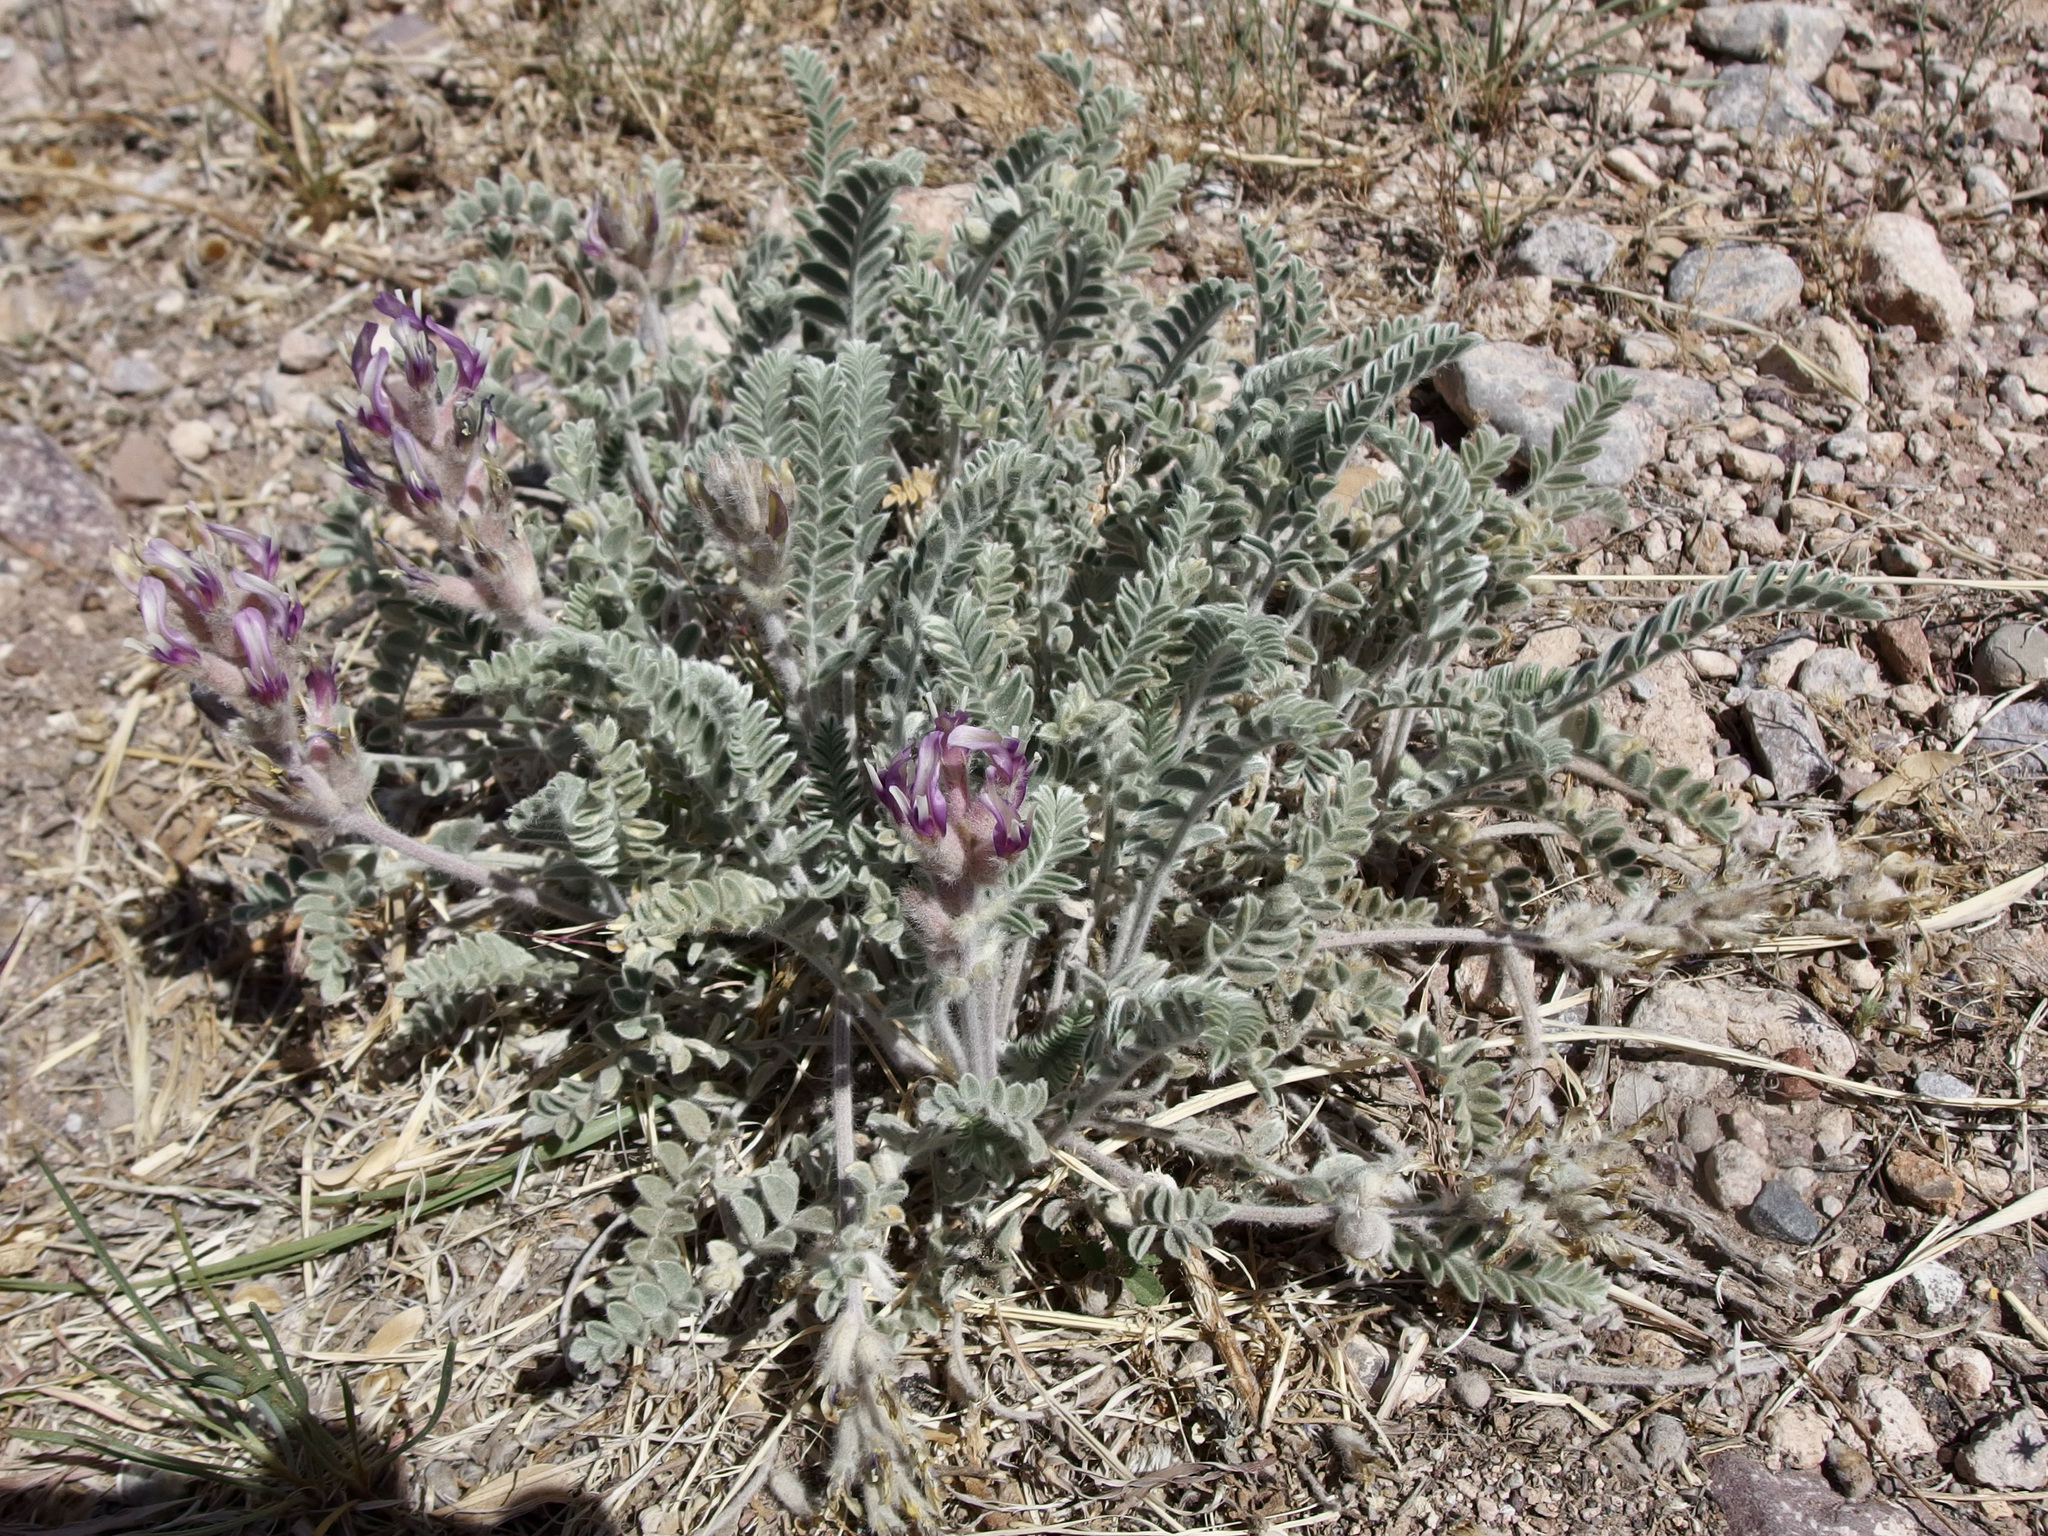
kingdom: Plantae
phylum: Tracheophyta
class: Magnoliopsida
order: Fabales
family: Fabaceae
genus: Astragalus
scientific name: Astragalus mollissimus
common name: Woolly locoweed
